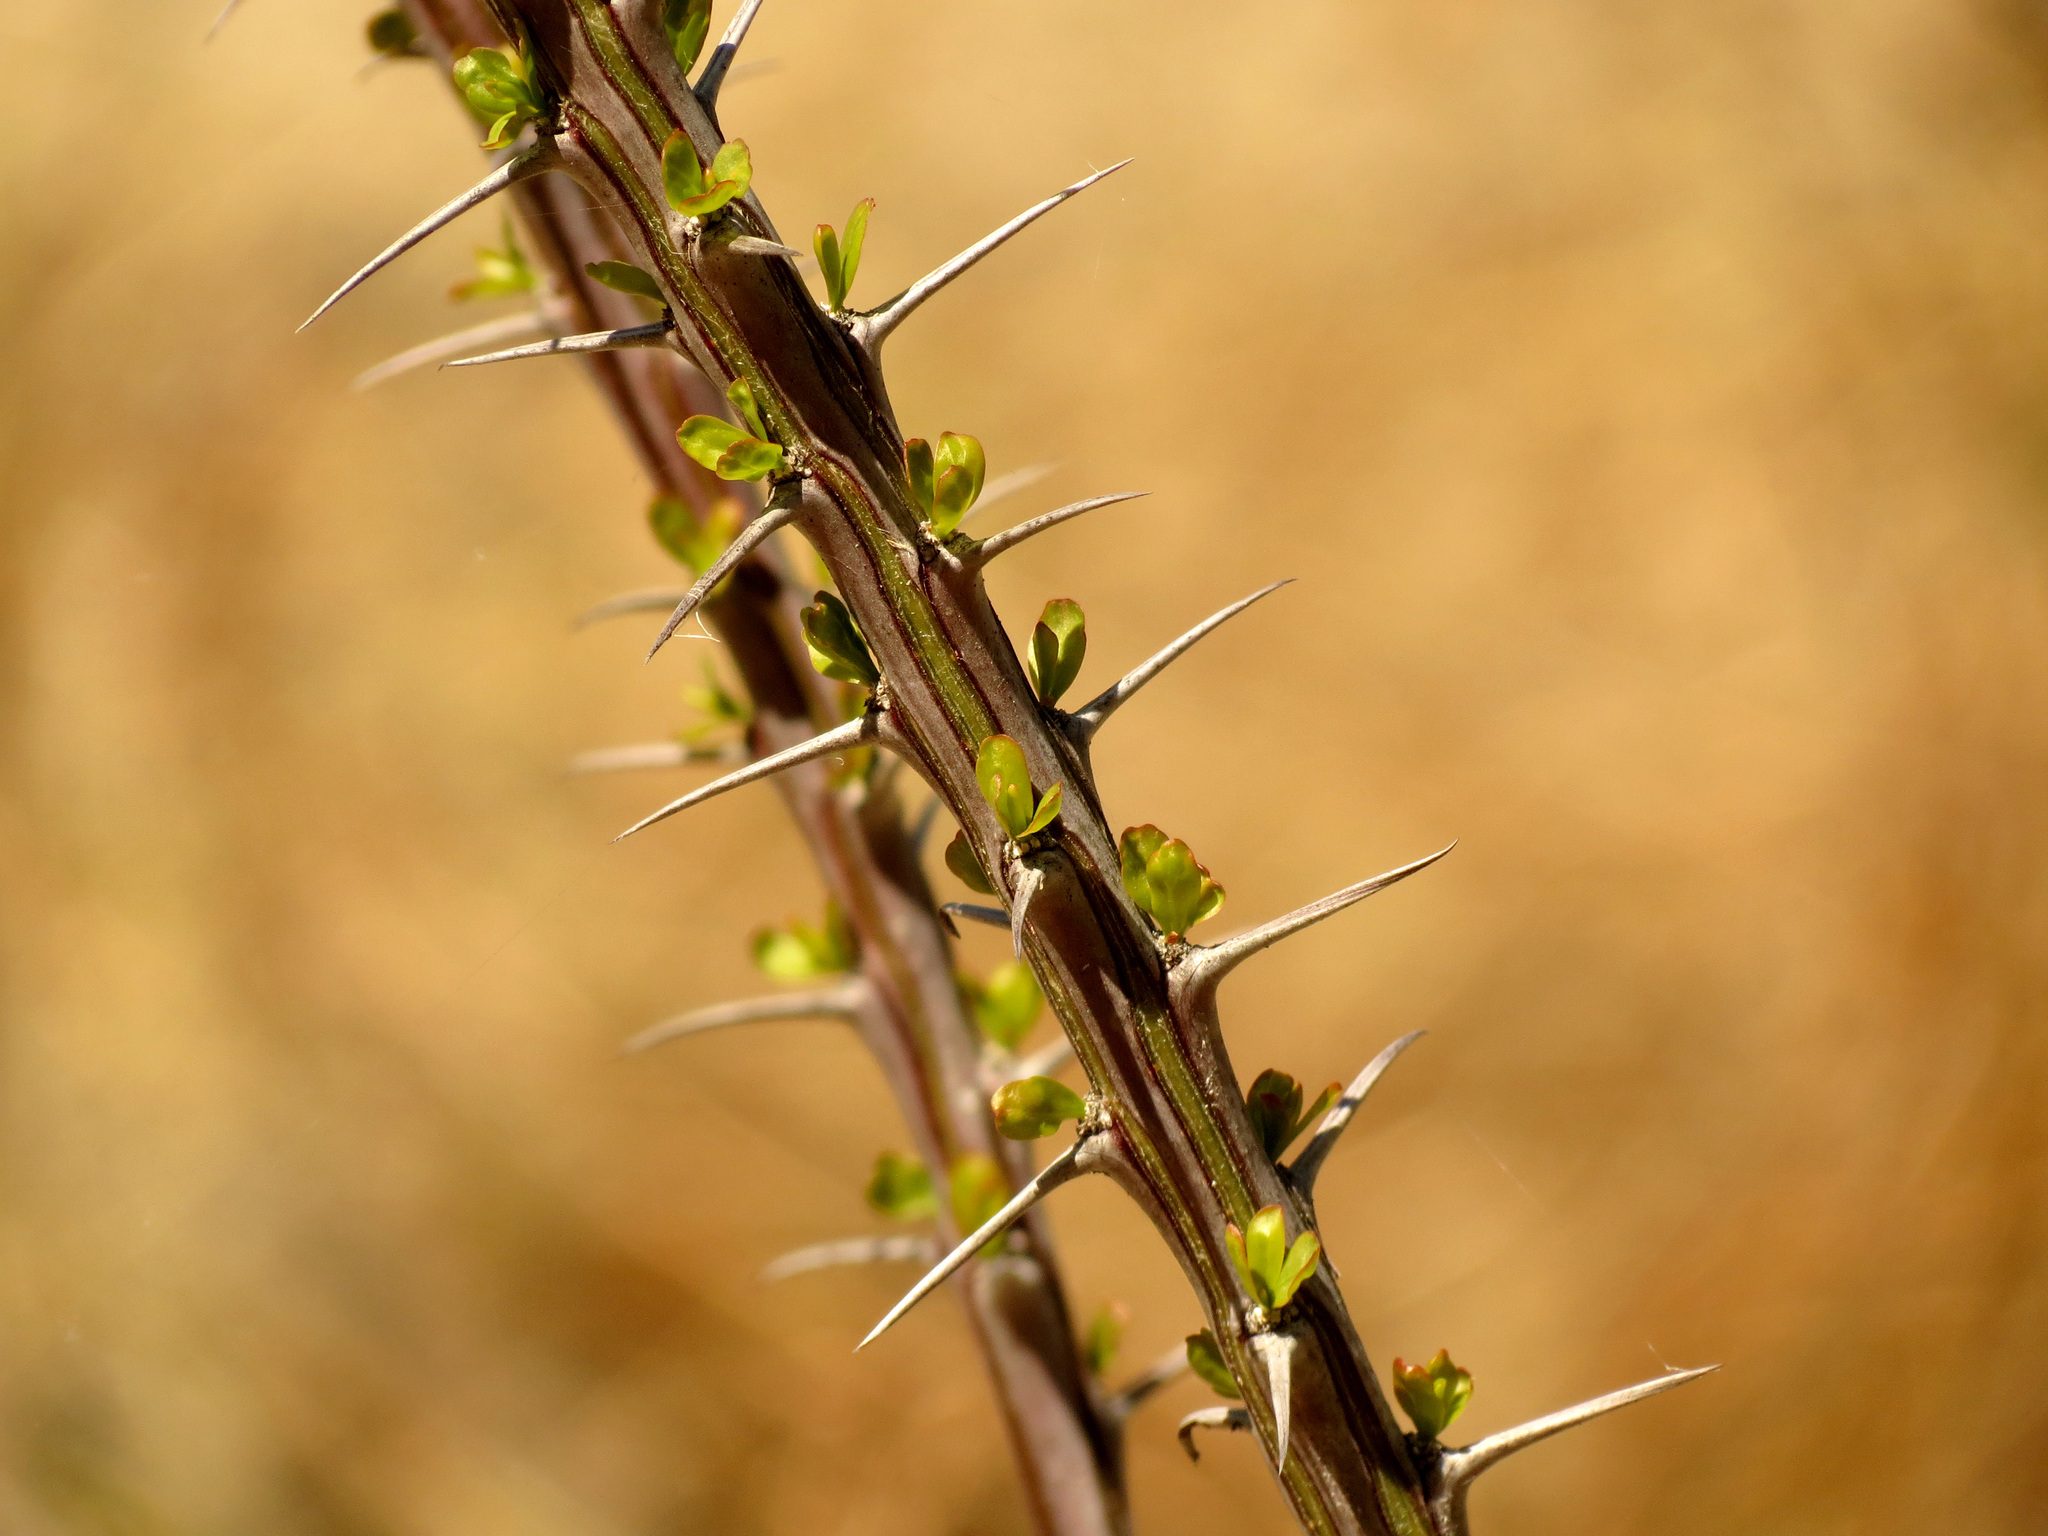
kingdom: Plantae
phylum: Tracheophyta
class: Magnoliopsida
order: Ericales
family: Fouquieriaceae
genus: Fouquieria
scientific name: Fouquieria splendens
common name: Vine-cactus
